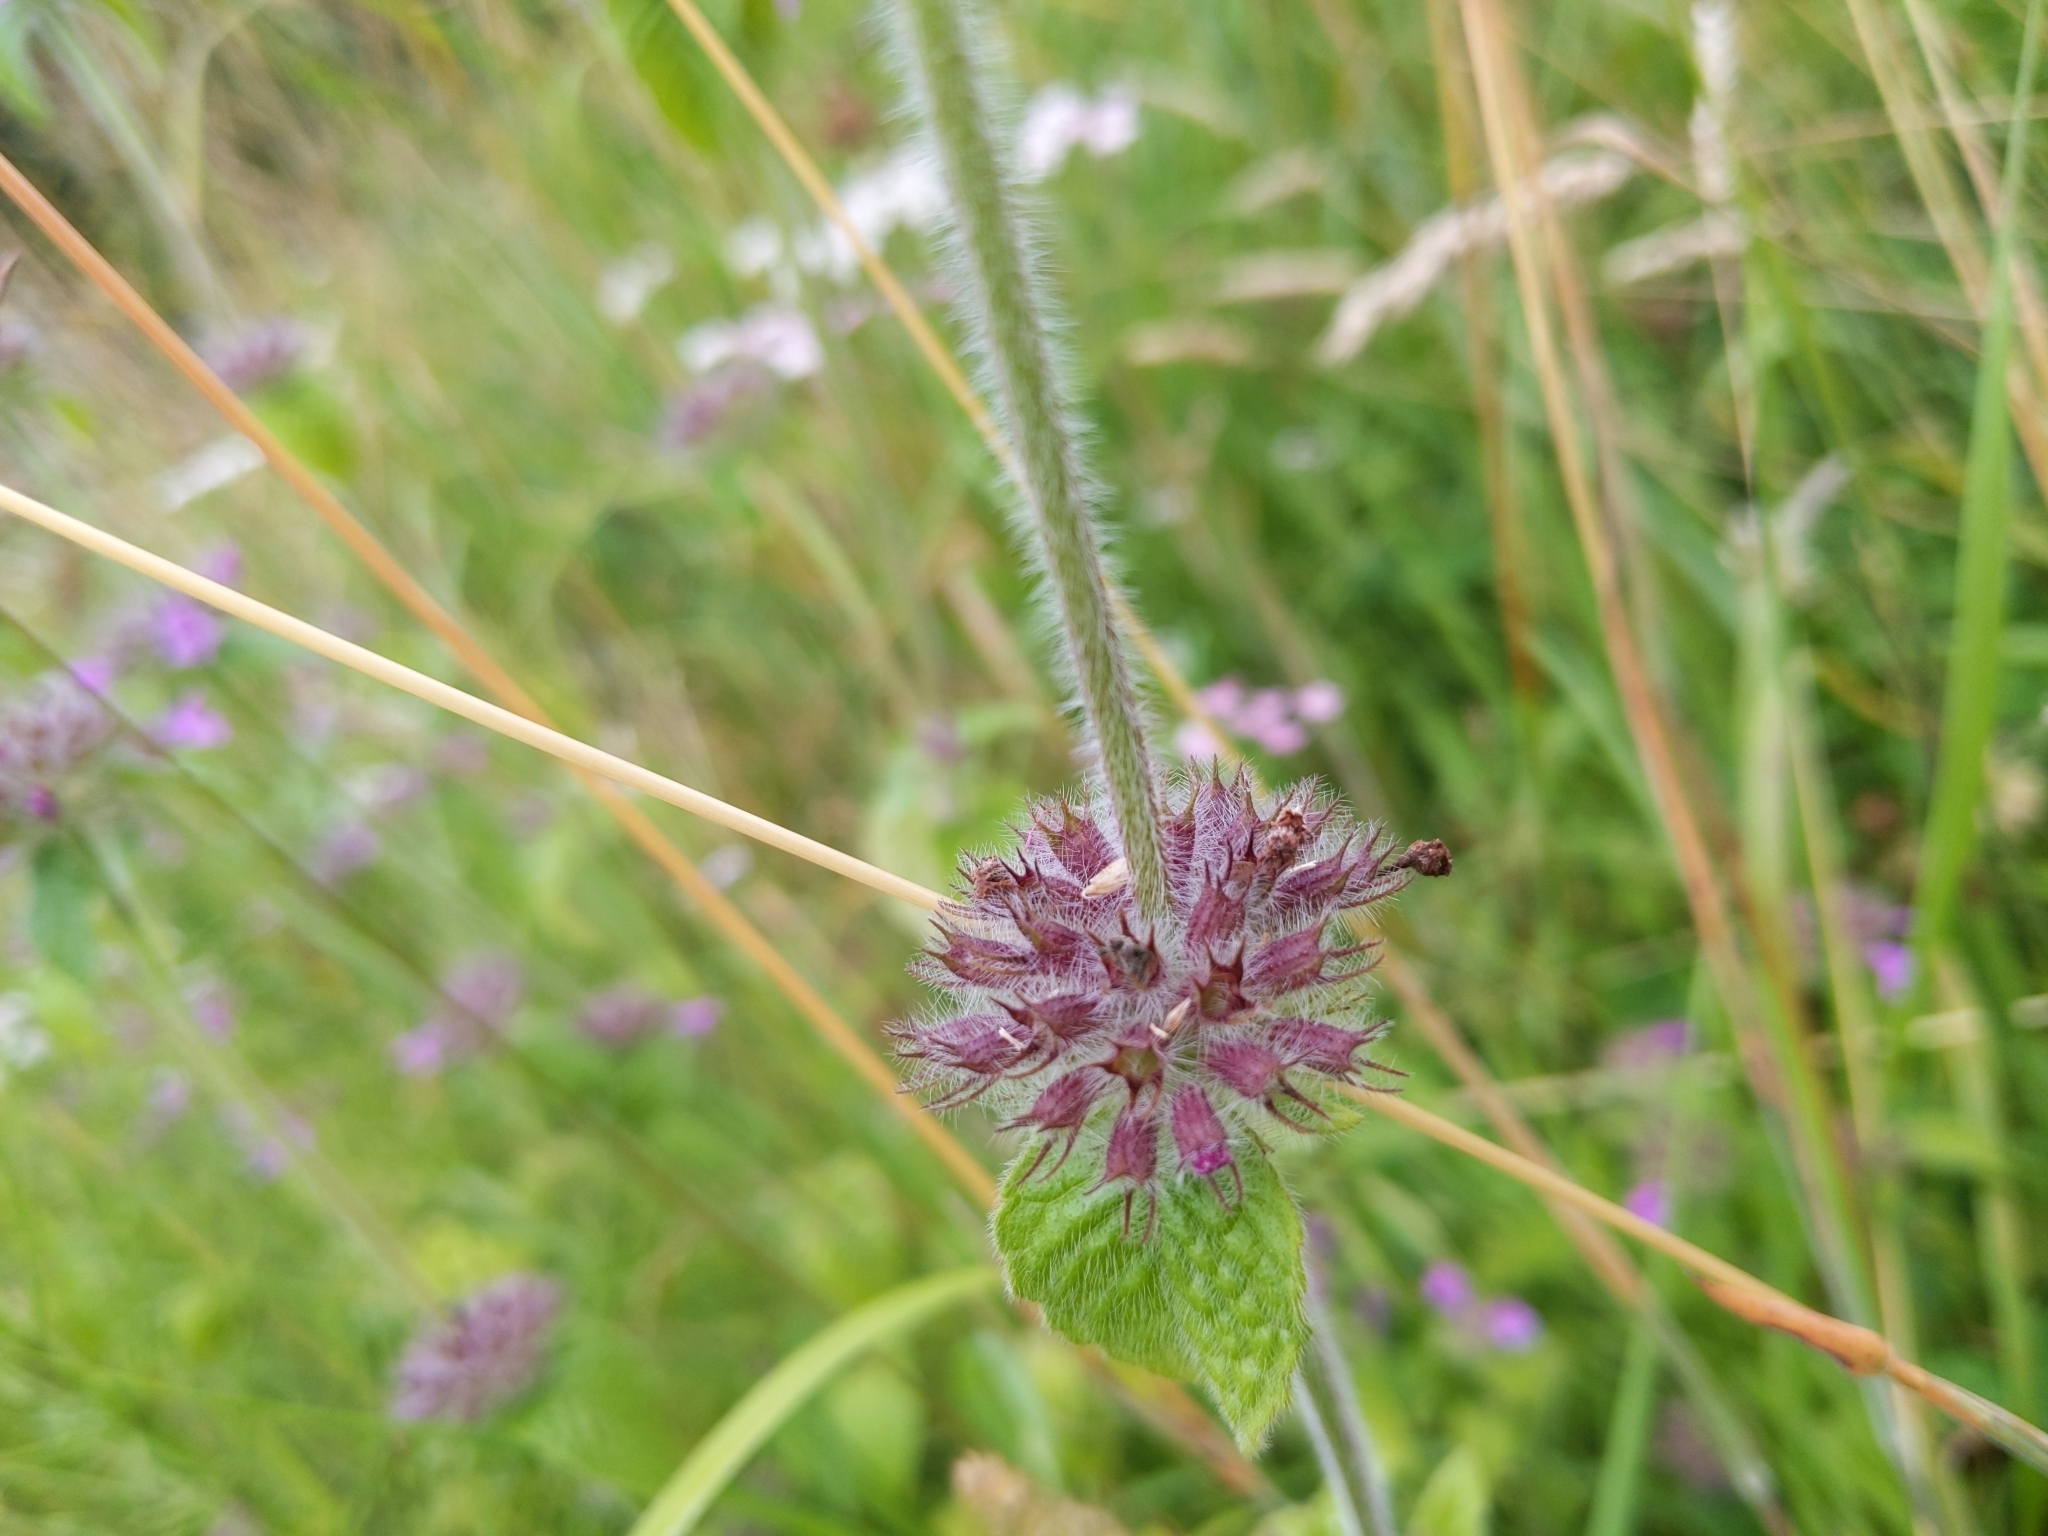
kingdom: Plantae
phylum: Tracheophyta
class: Magnoliopsida
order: Lamiales
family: Lamiaceae
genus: Clinopodium
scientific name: Clinopodium vulgare
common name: Wild basil
